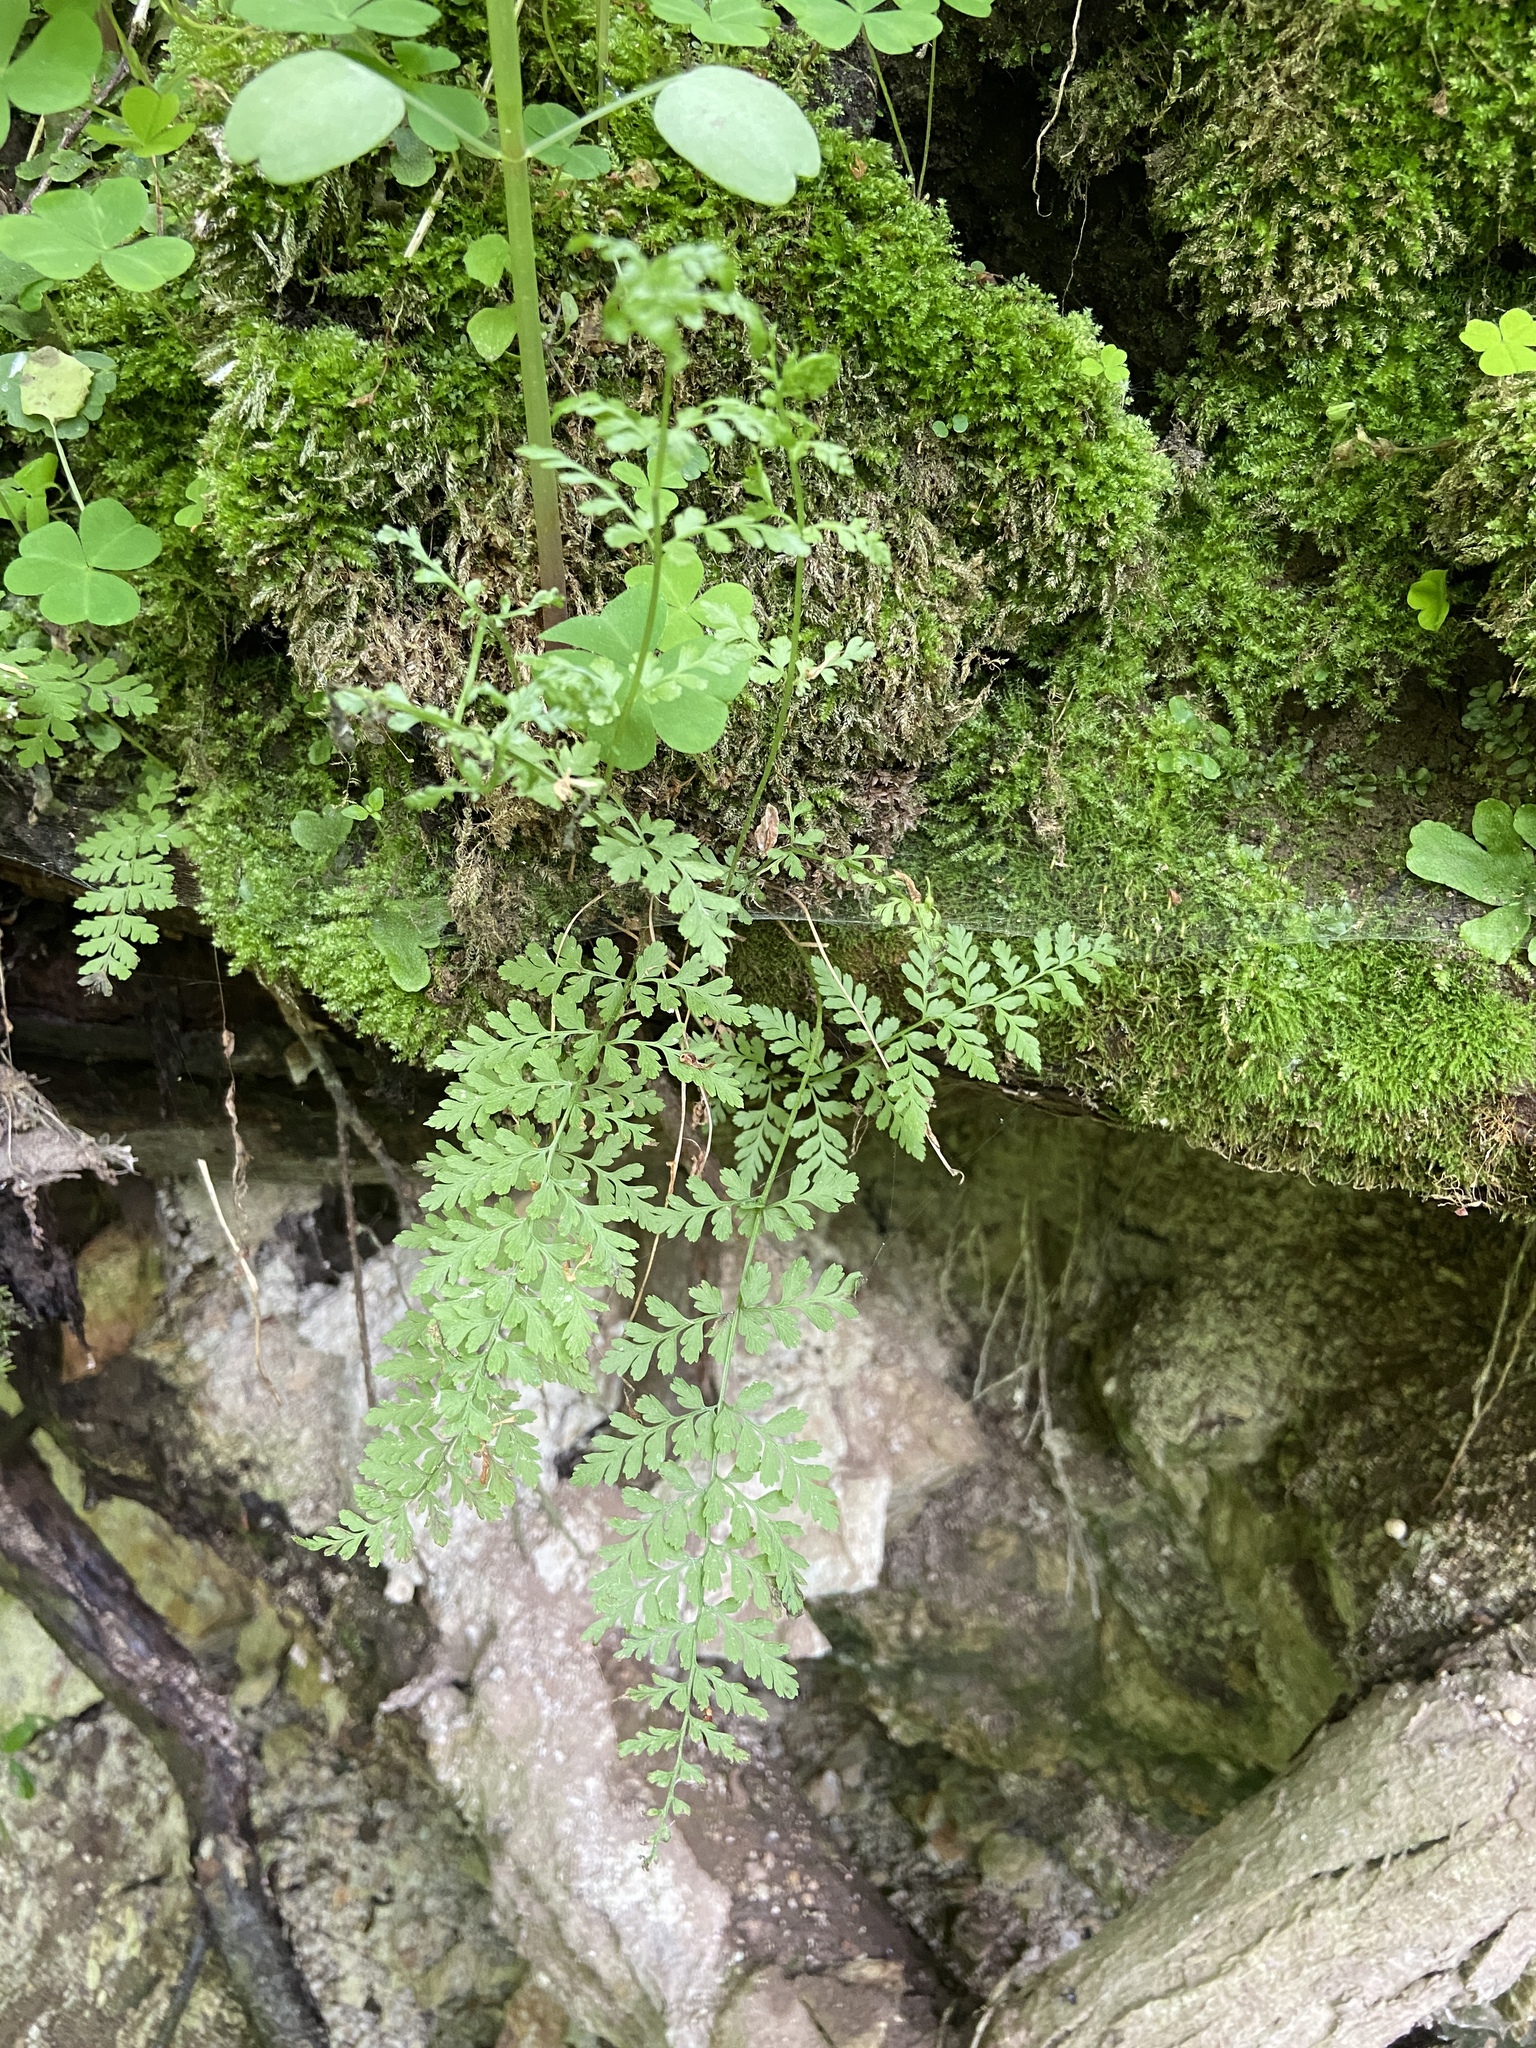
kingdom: Plantae
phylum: Tracheophyta
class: Polypodiopsida
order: Polypodiales
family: Cystopteridaceae
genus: Cystopteris
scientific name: Cystopteris fragilis
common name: Brittle bladder fern
